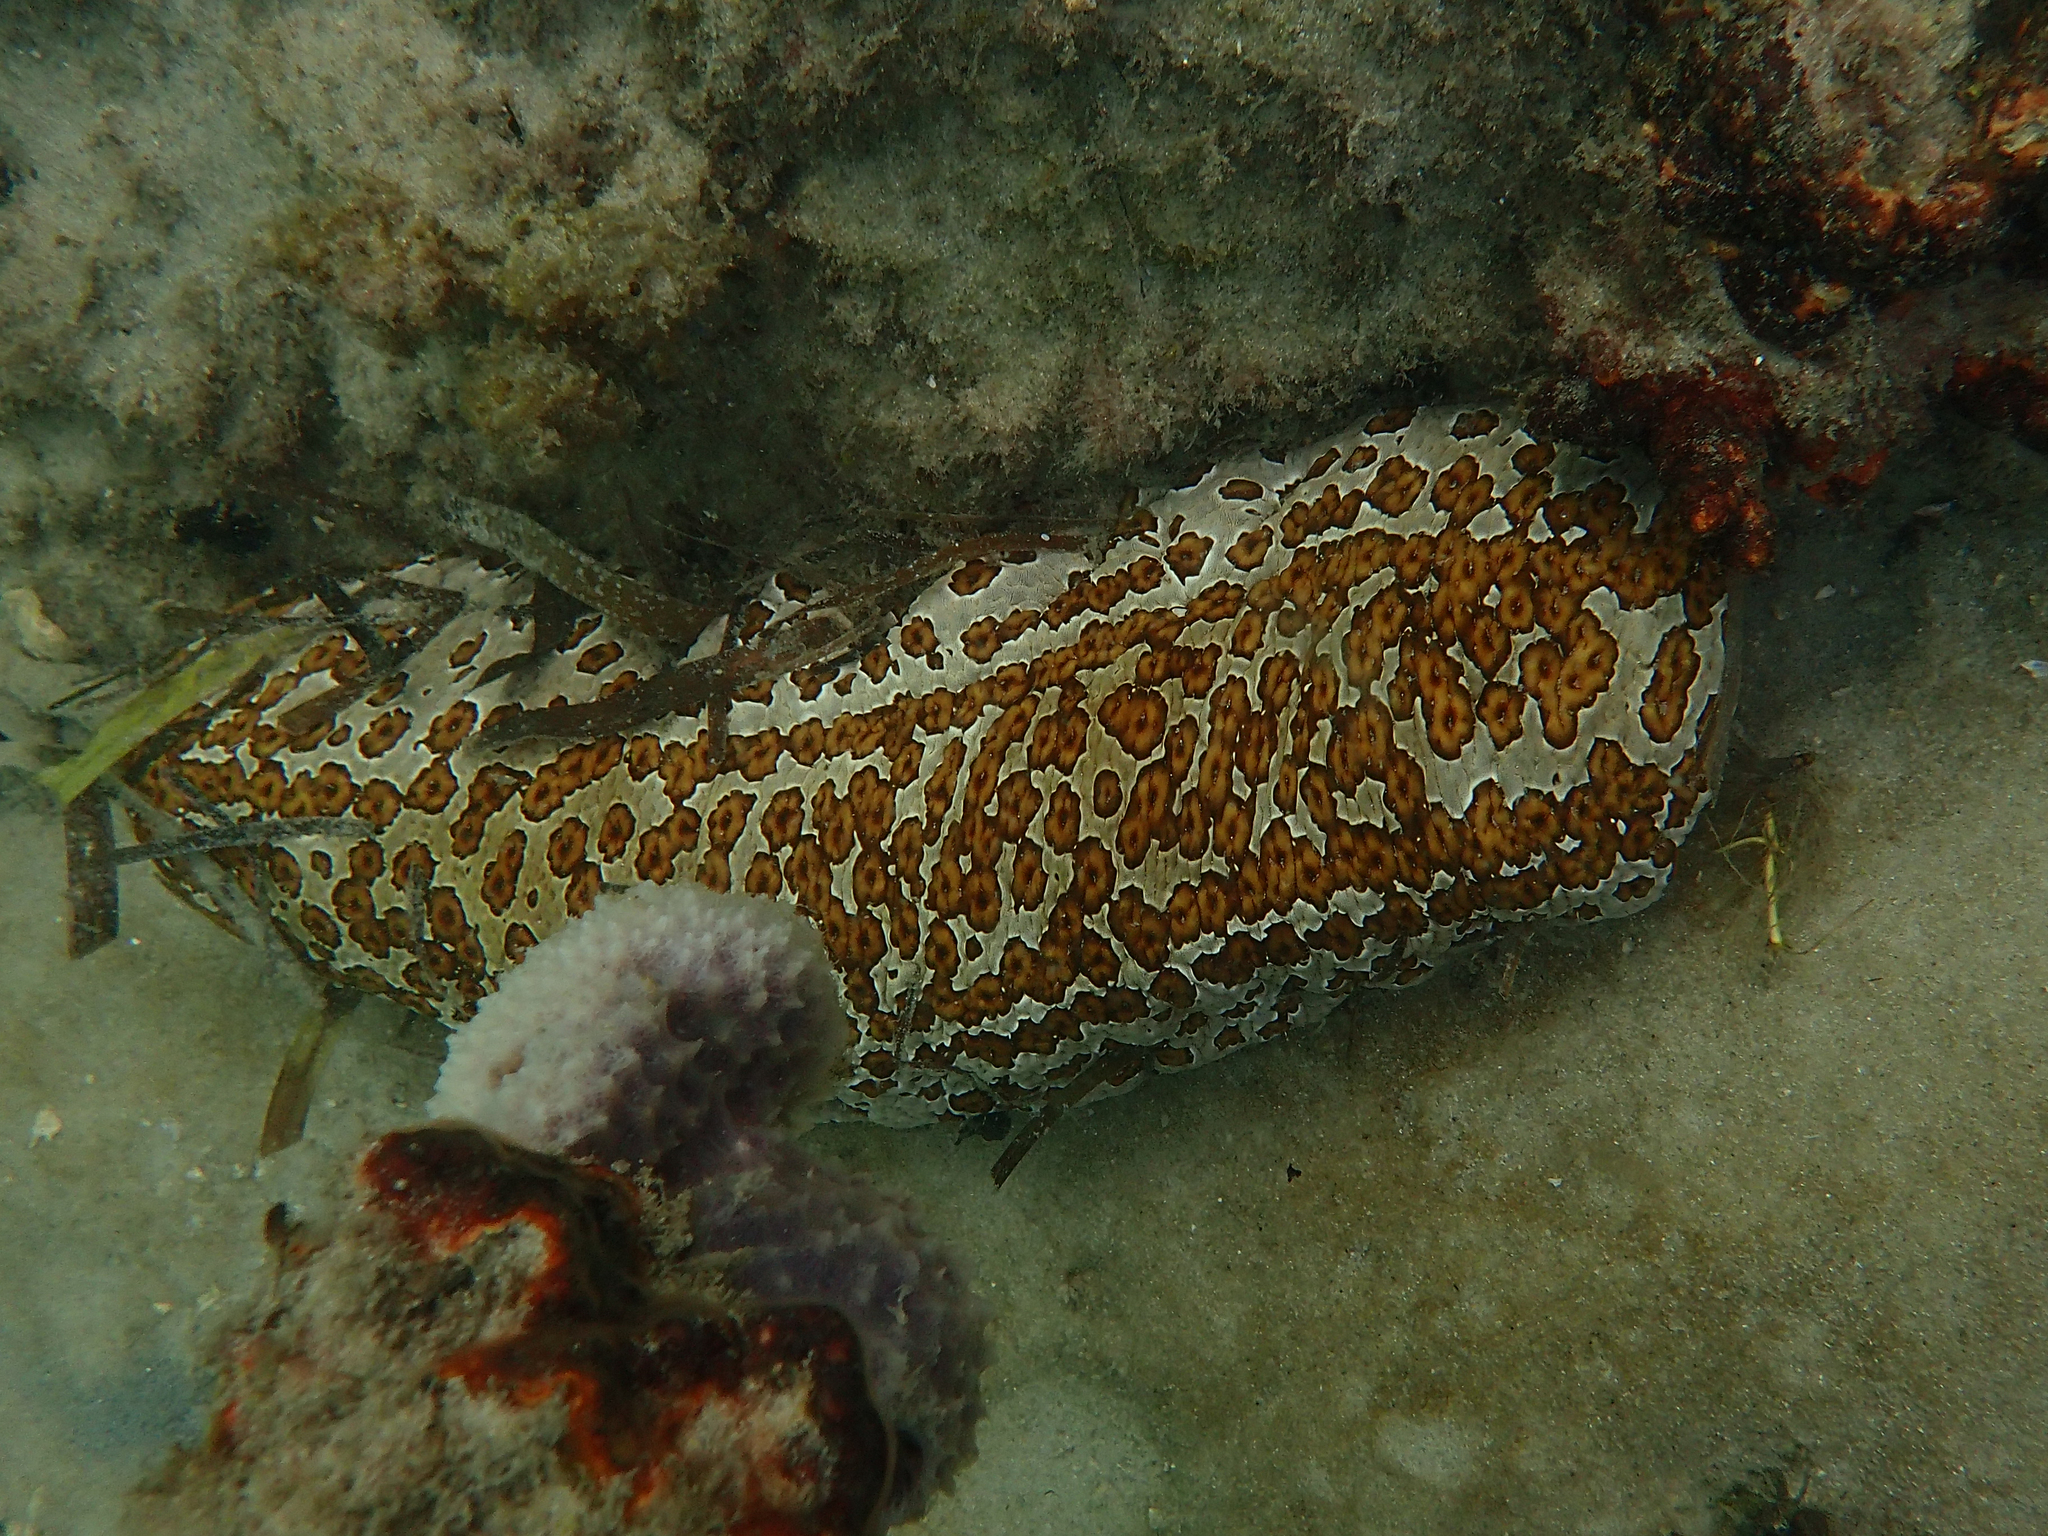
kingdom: Animalia
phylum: Echinodermata
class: Holothuroidea
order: Holothuriida
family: Holothuriidae
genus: Bohadschia
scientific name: Bohadschia argus
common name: Leopardfish
